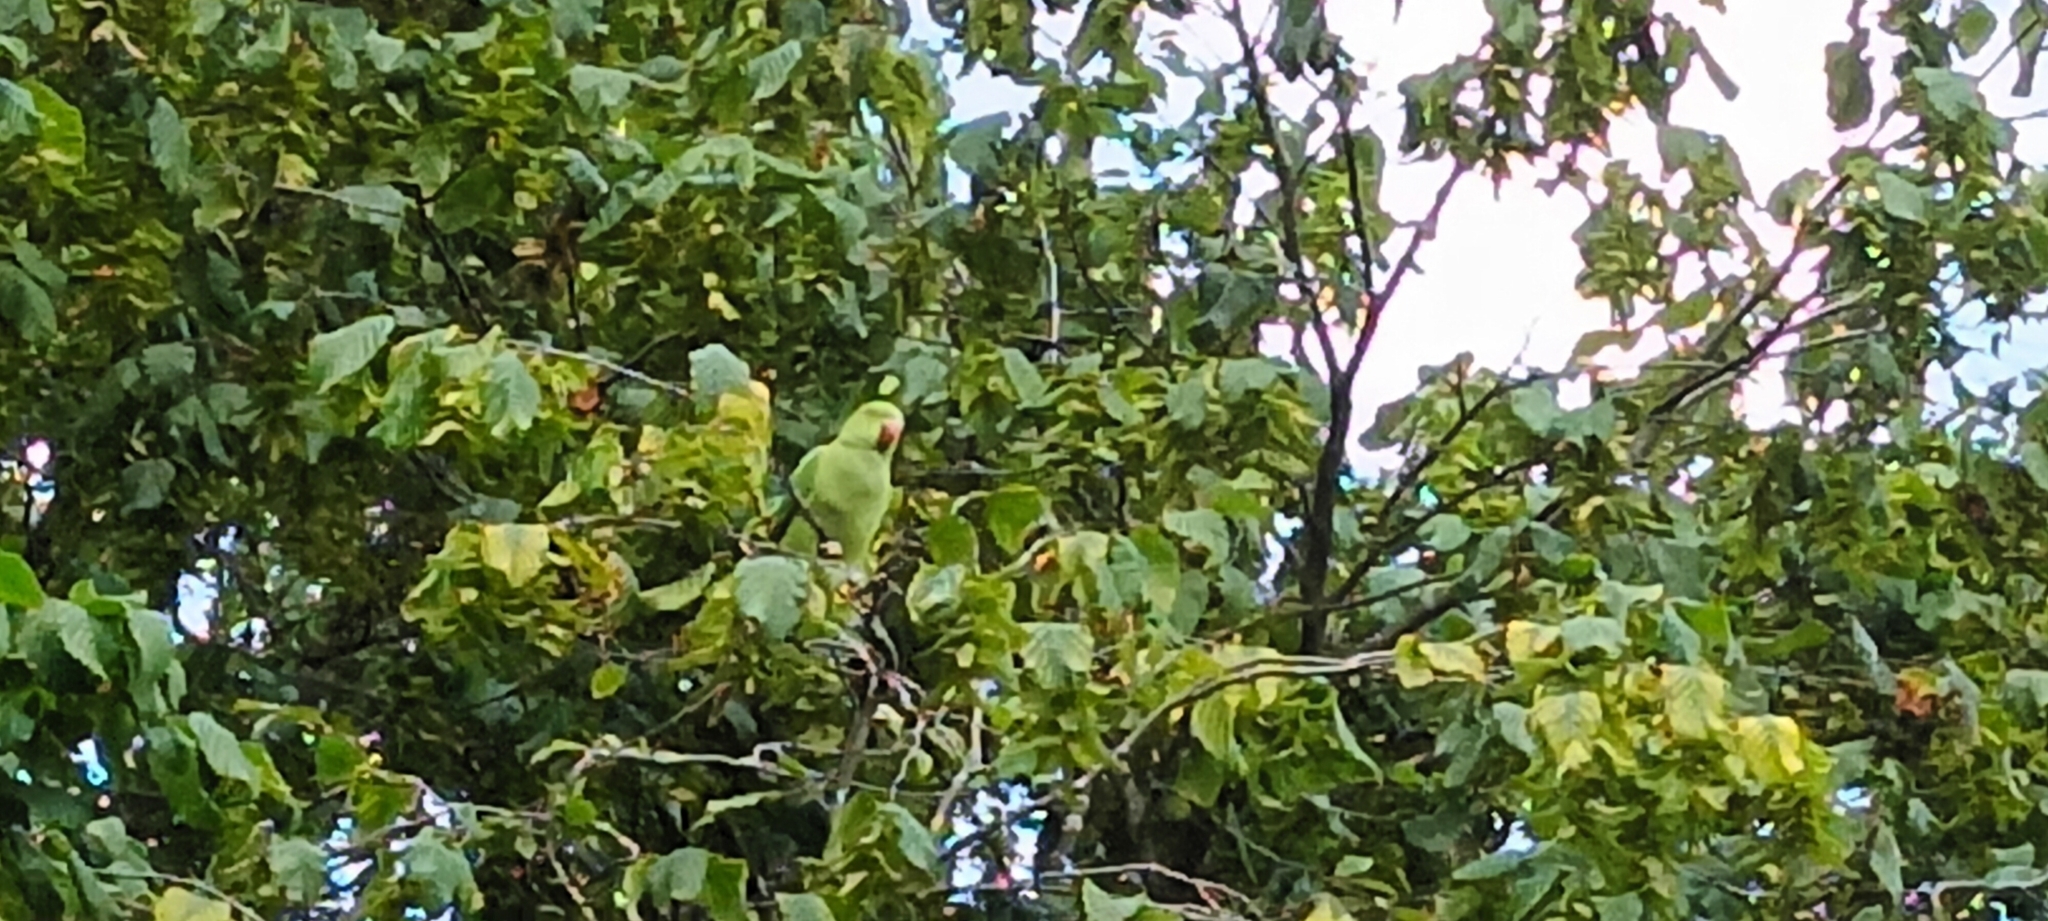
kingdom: Animalia
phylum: Chordata
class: Aves
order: Psittaciformes
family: Psittacidae
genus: Psittacula
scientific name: Psittacula krameri
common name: Rose-ringed parakeet
